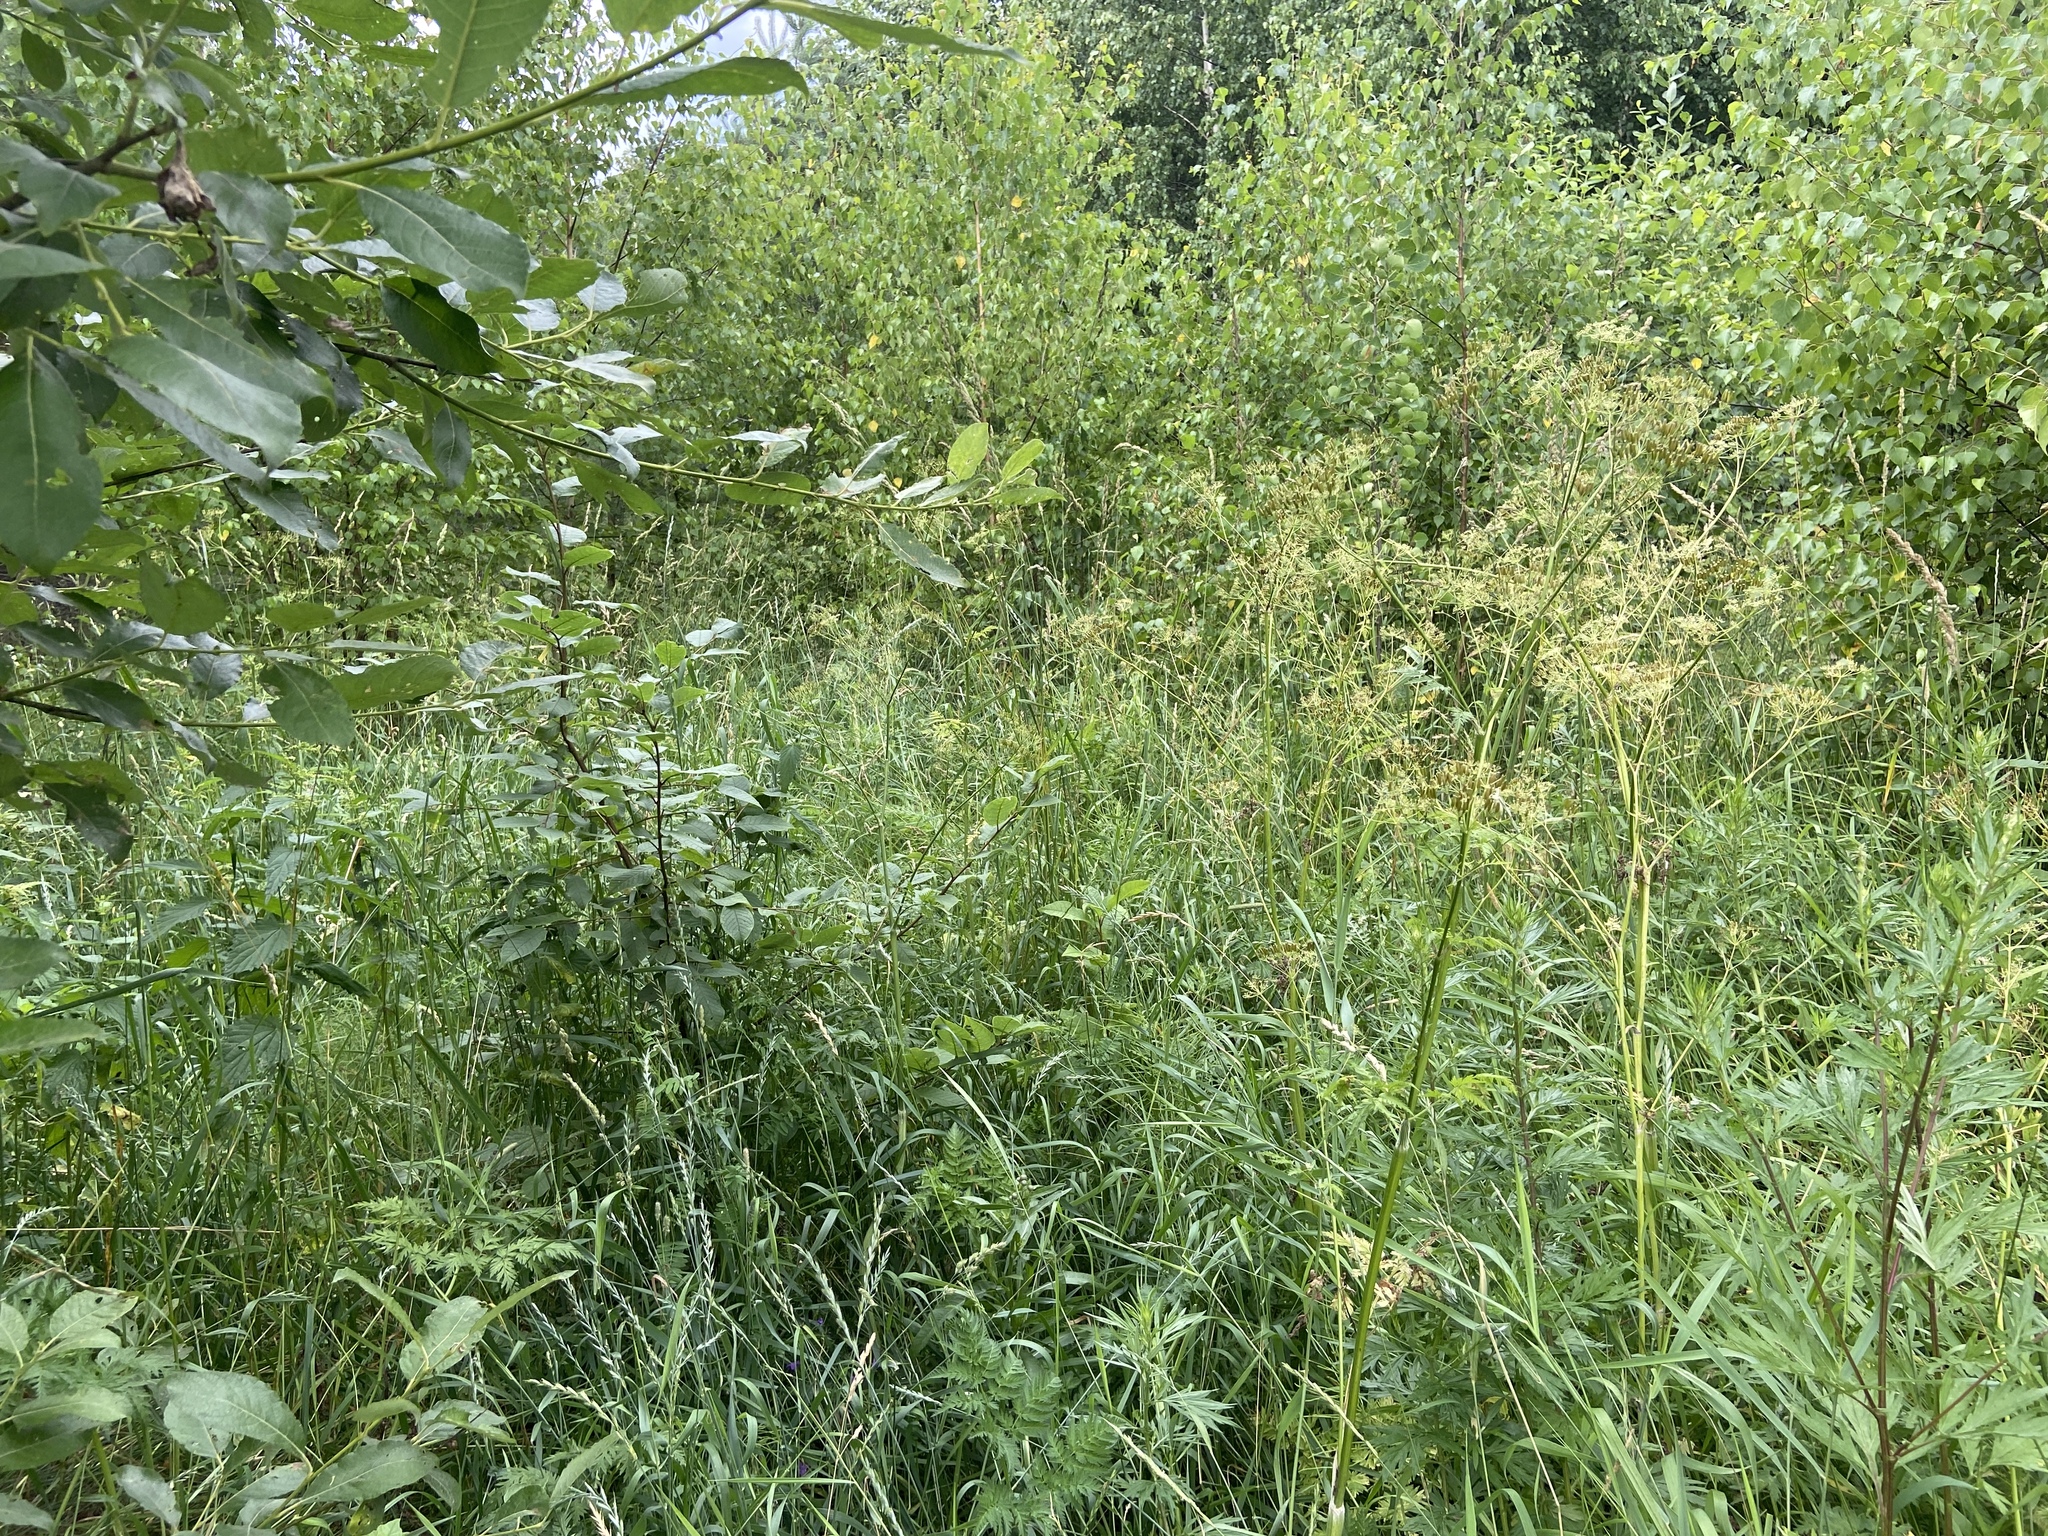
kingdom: Plantae
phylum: Tracheophyta
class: Magnoliopsida
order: Apiales
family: Apiaceae
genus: Anthriscus
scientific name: Anthriscus sylvestris
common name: Cow parsley
